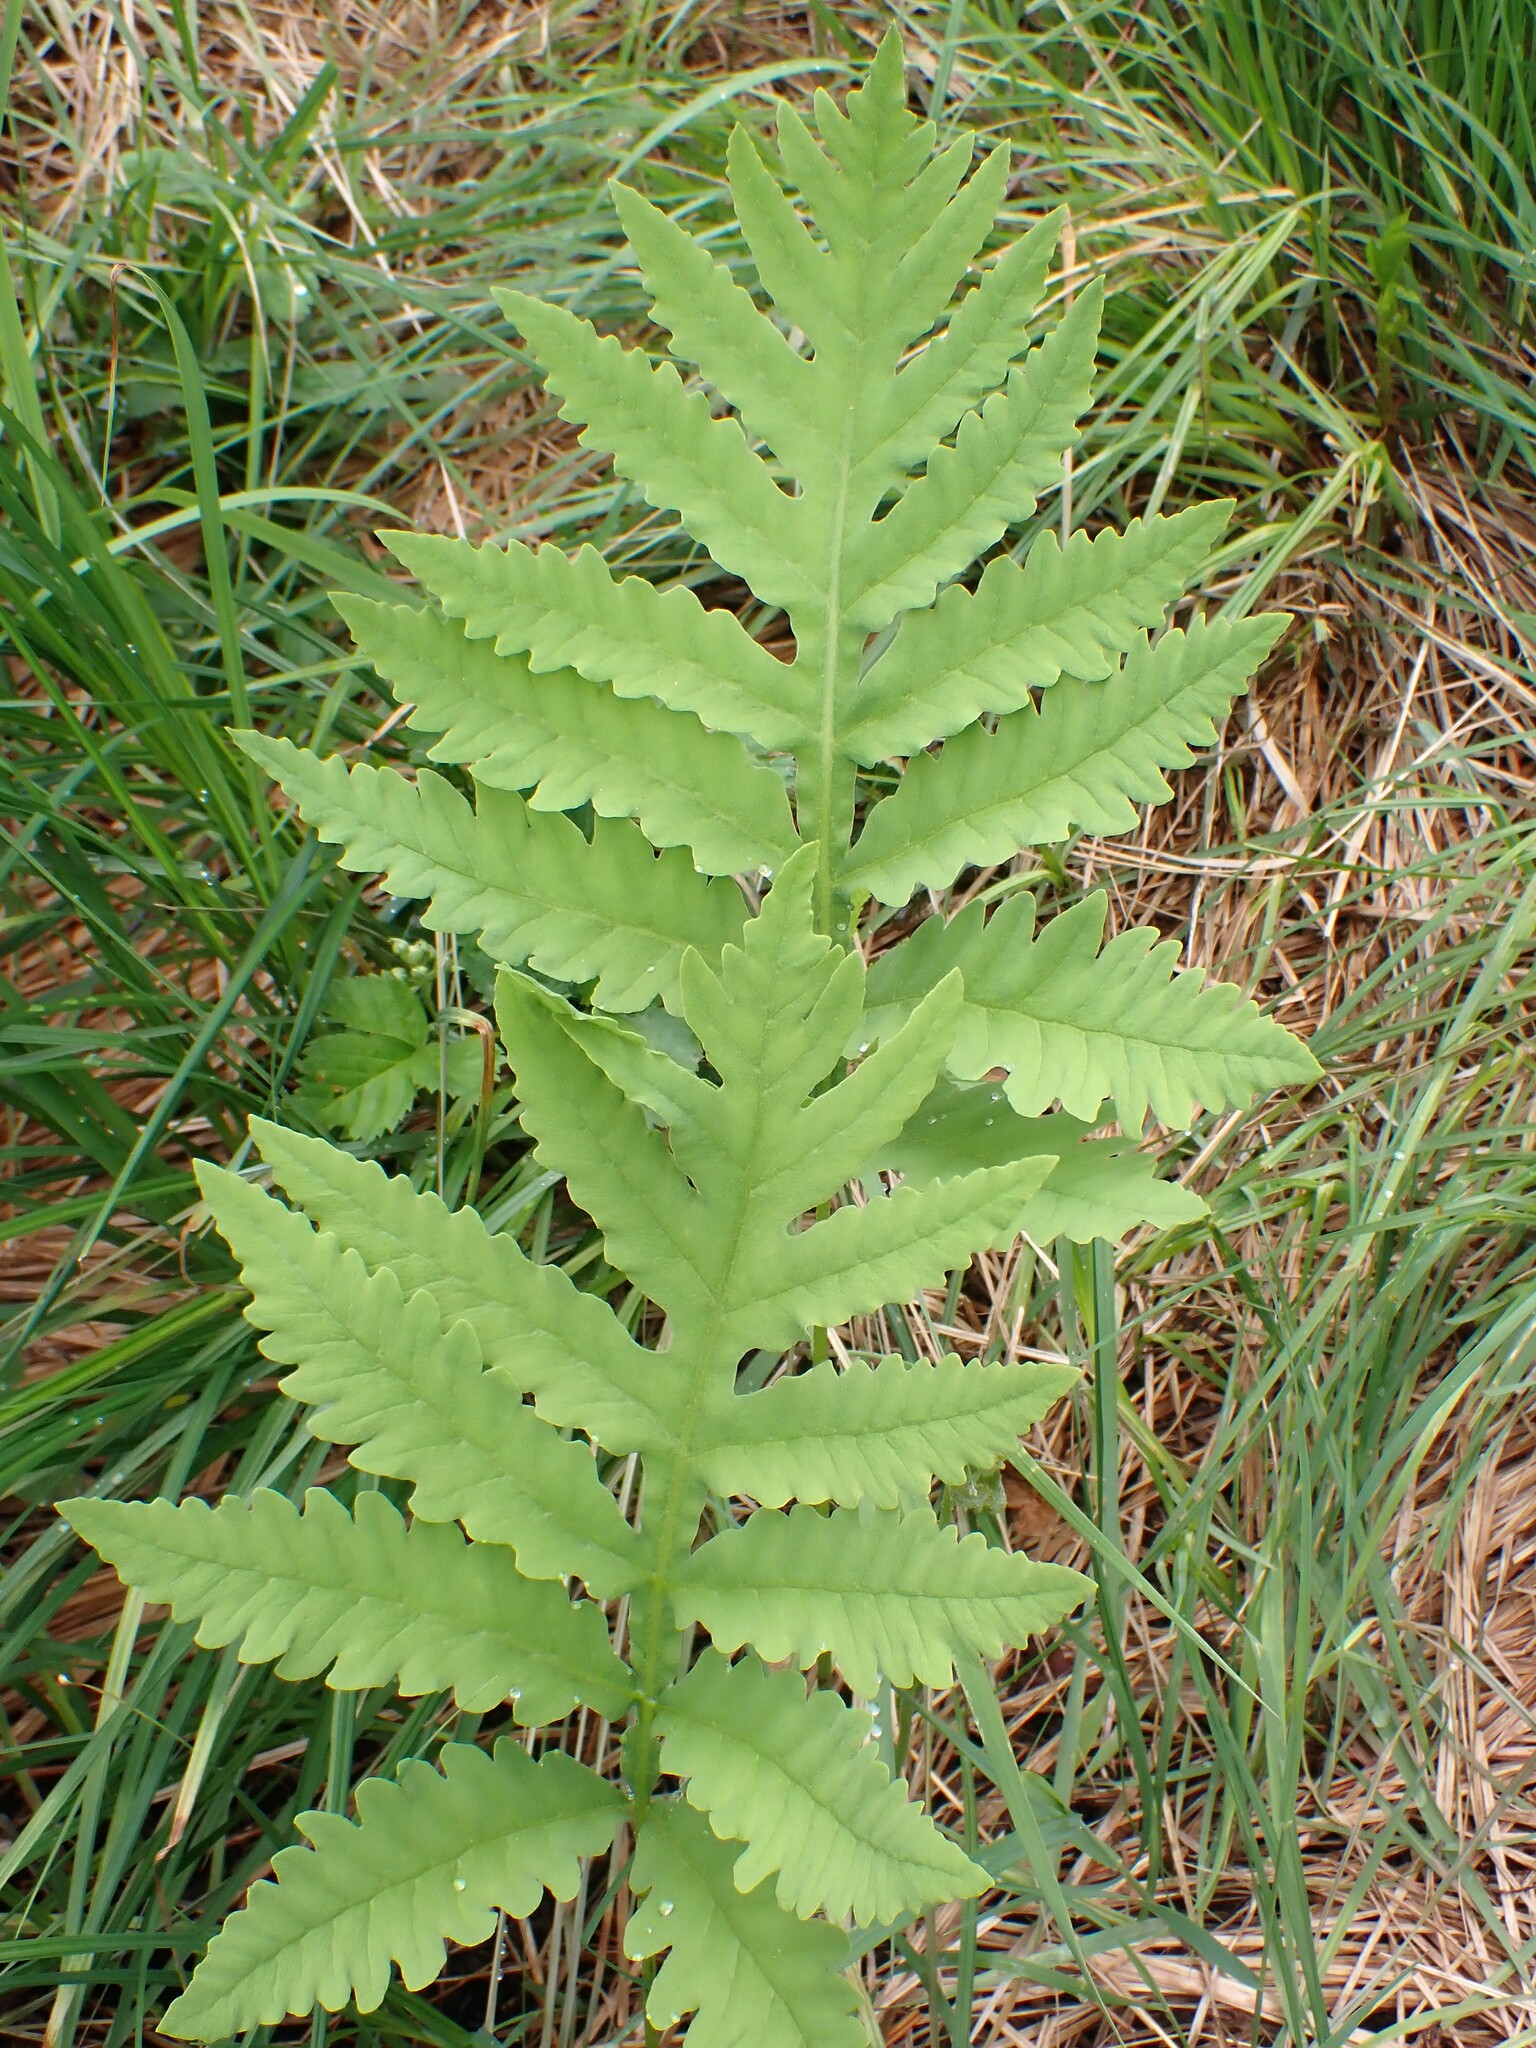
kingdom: Plantae
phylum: Tracheophyta
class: Polypodiopsida
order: Polypodiales
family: Onocleaceae
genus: Onoclea
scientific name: Onoclea sensibilis
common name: Sensitive fern
